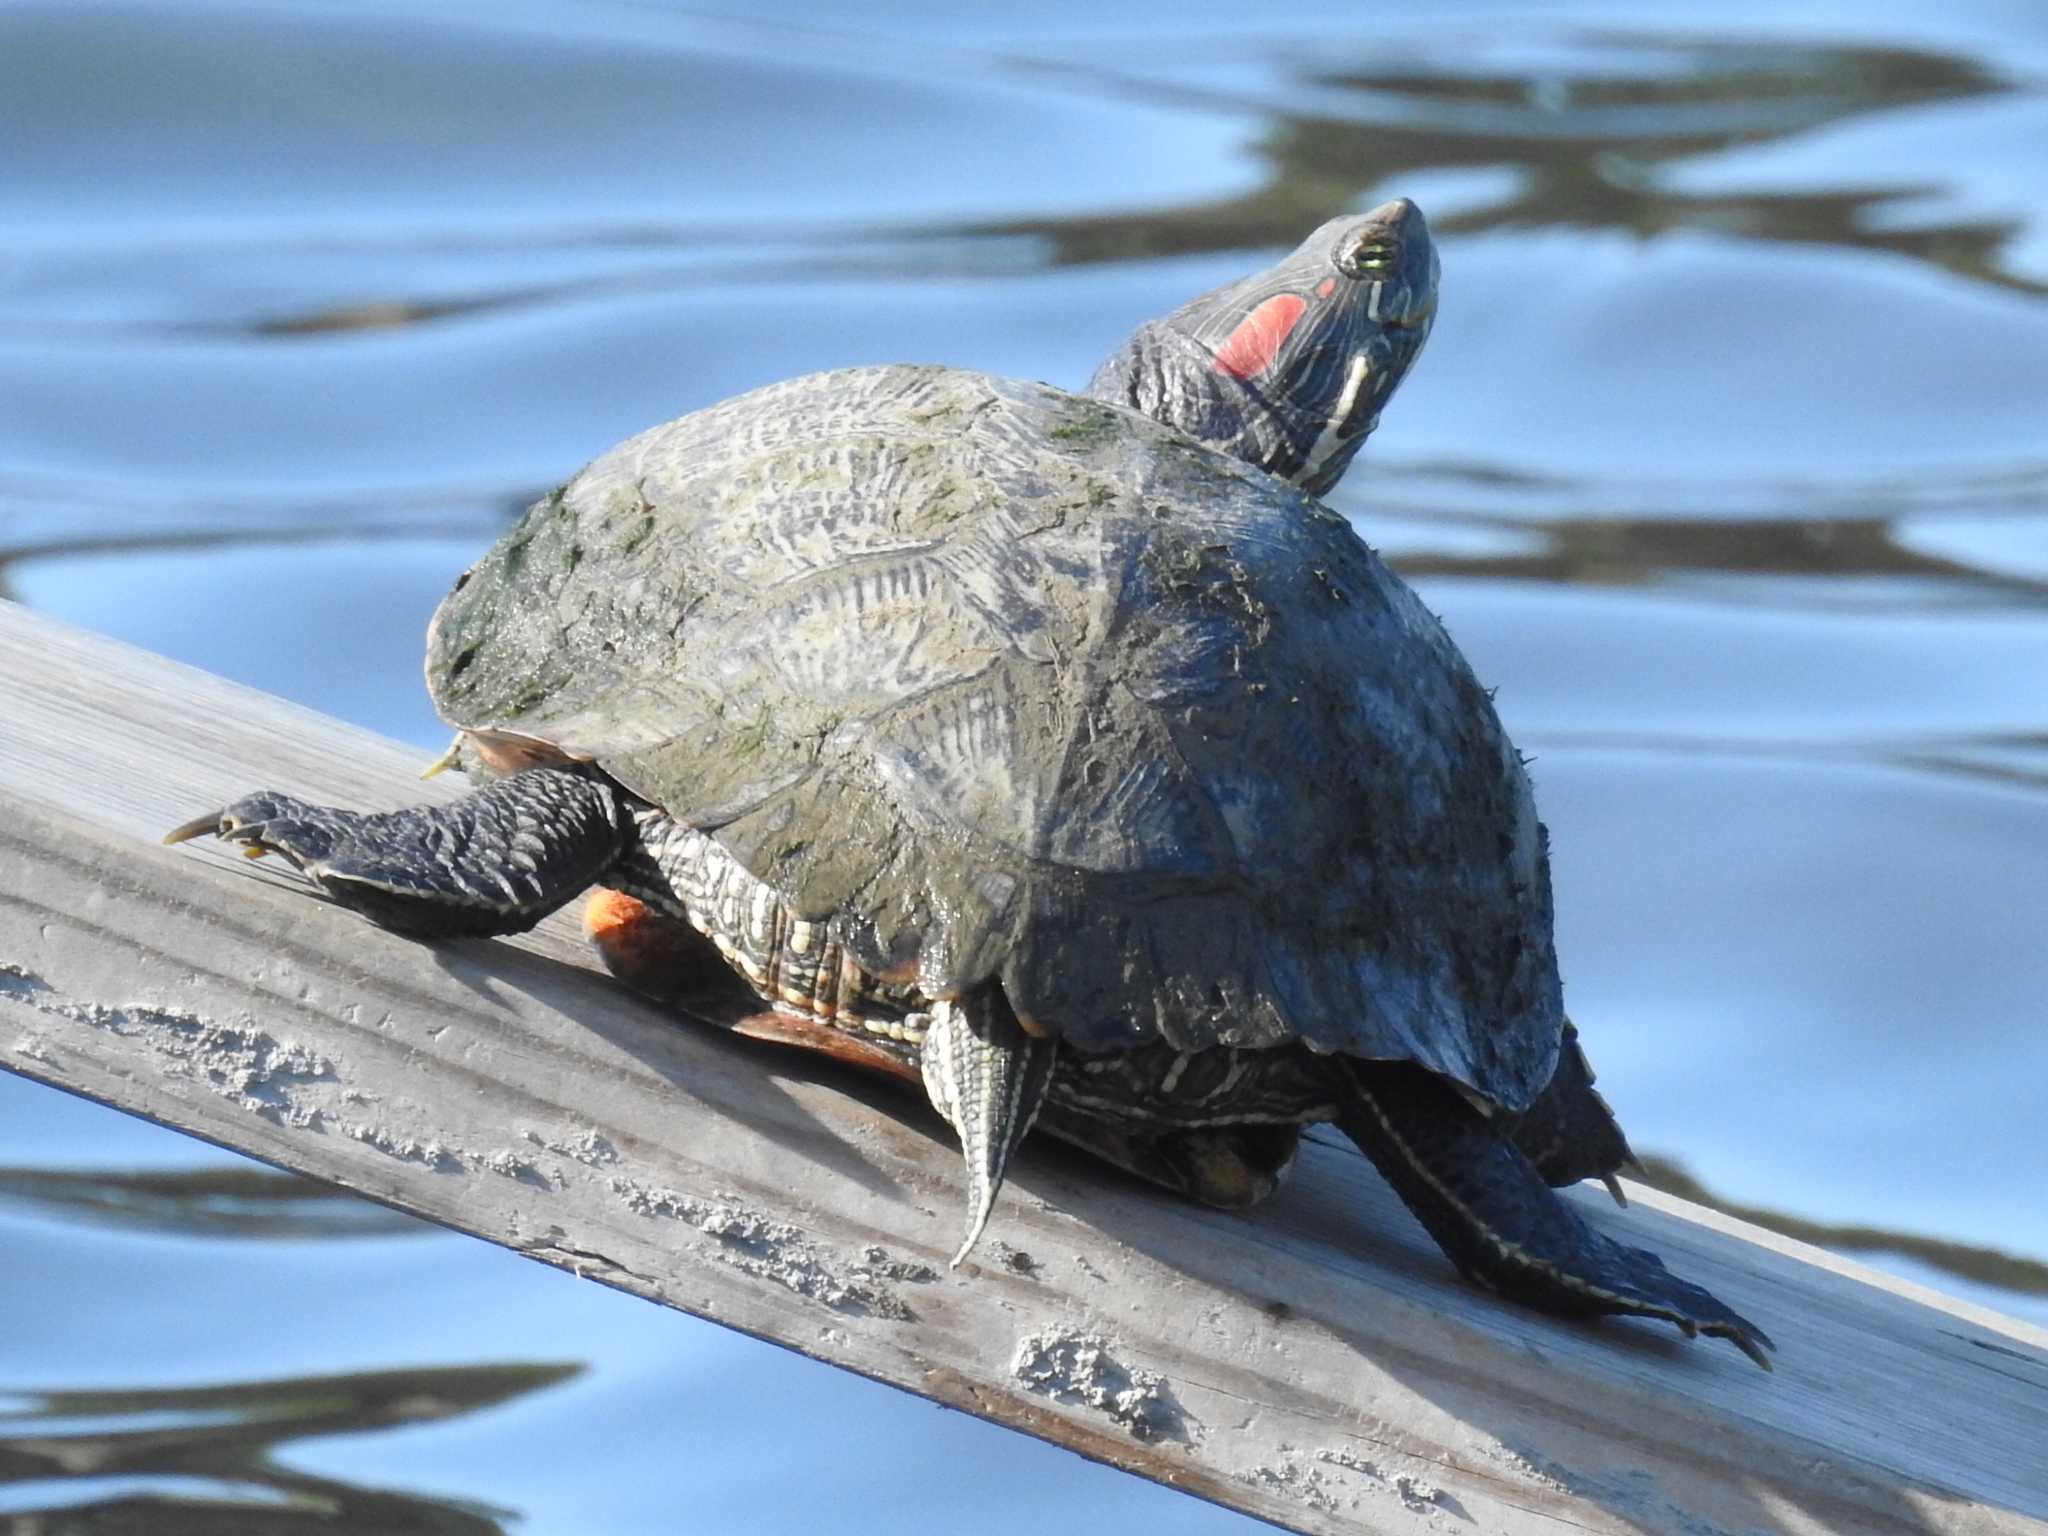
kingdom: Animalia
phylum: Chordata
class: Testudines
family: Emydidae
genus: Trachemys
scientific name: Trachemys scripta
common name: Slider
